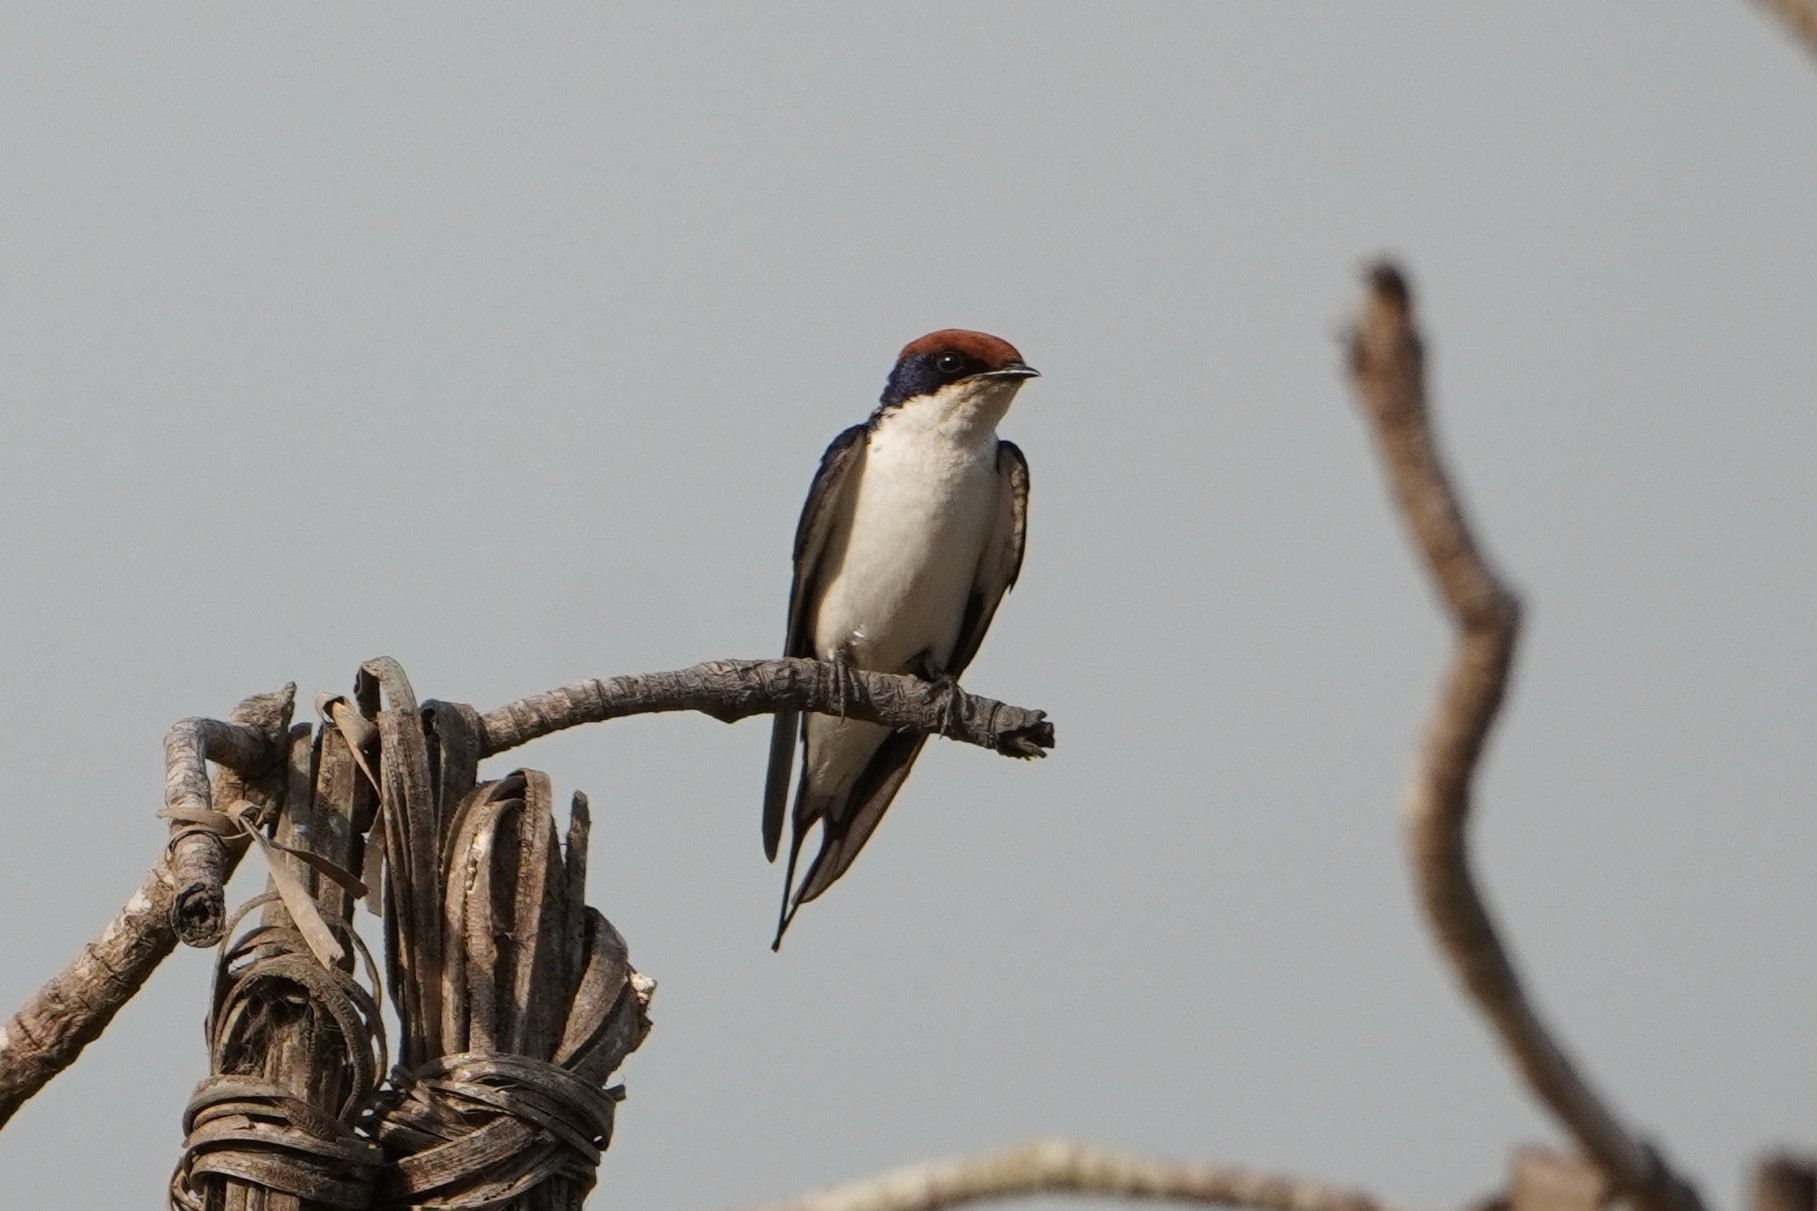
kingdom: Animalia
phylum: Chordata
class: Aves
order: Passeriformes
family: Hirundinidae
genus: Hirundo
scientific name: Hirundo smithii
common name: Wire-tailed swallow
